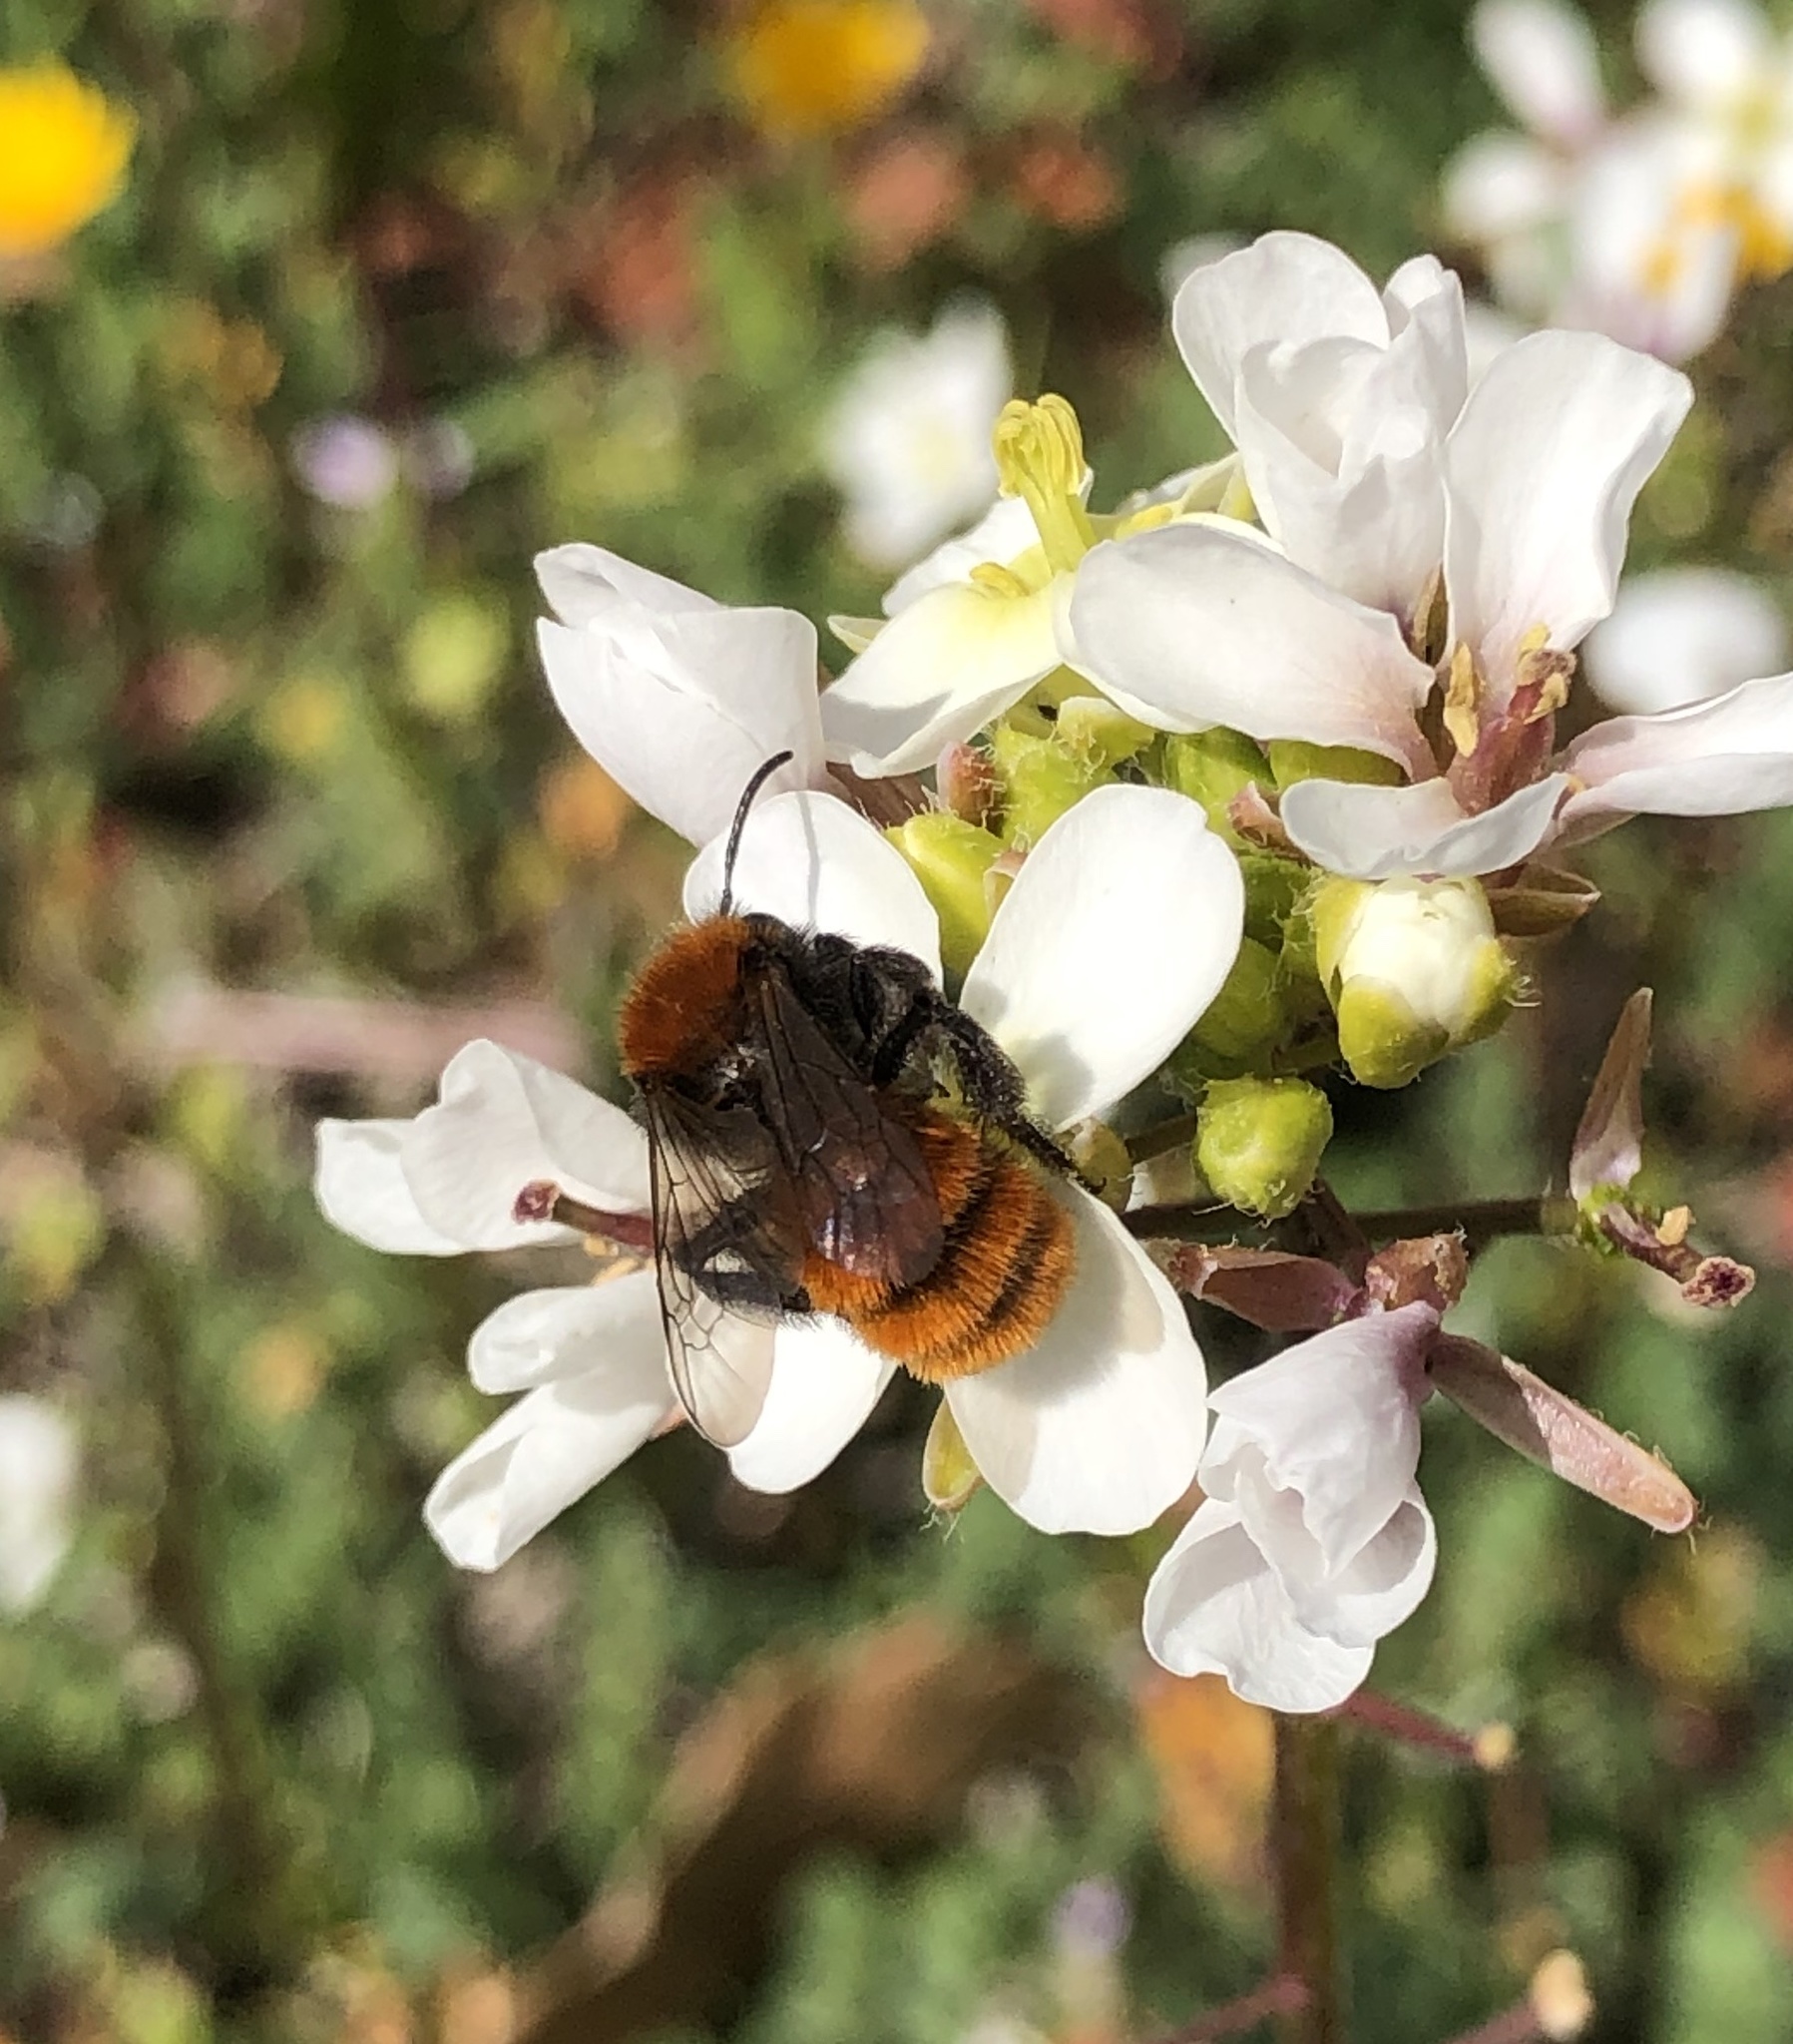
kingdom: Animalia
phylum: Arthropoda
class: Insecta
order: Hymenoptera
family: Andrenidae
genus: Andrena
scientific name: Andrena fulva
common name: Tawny mining bee
